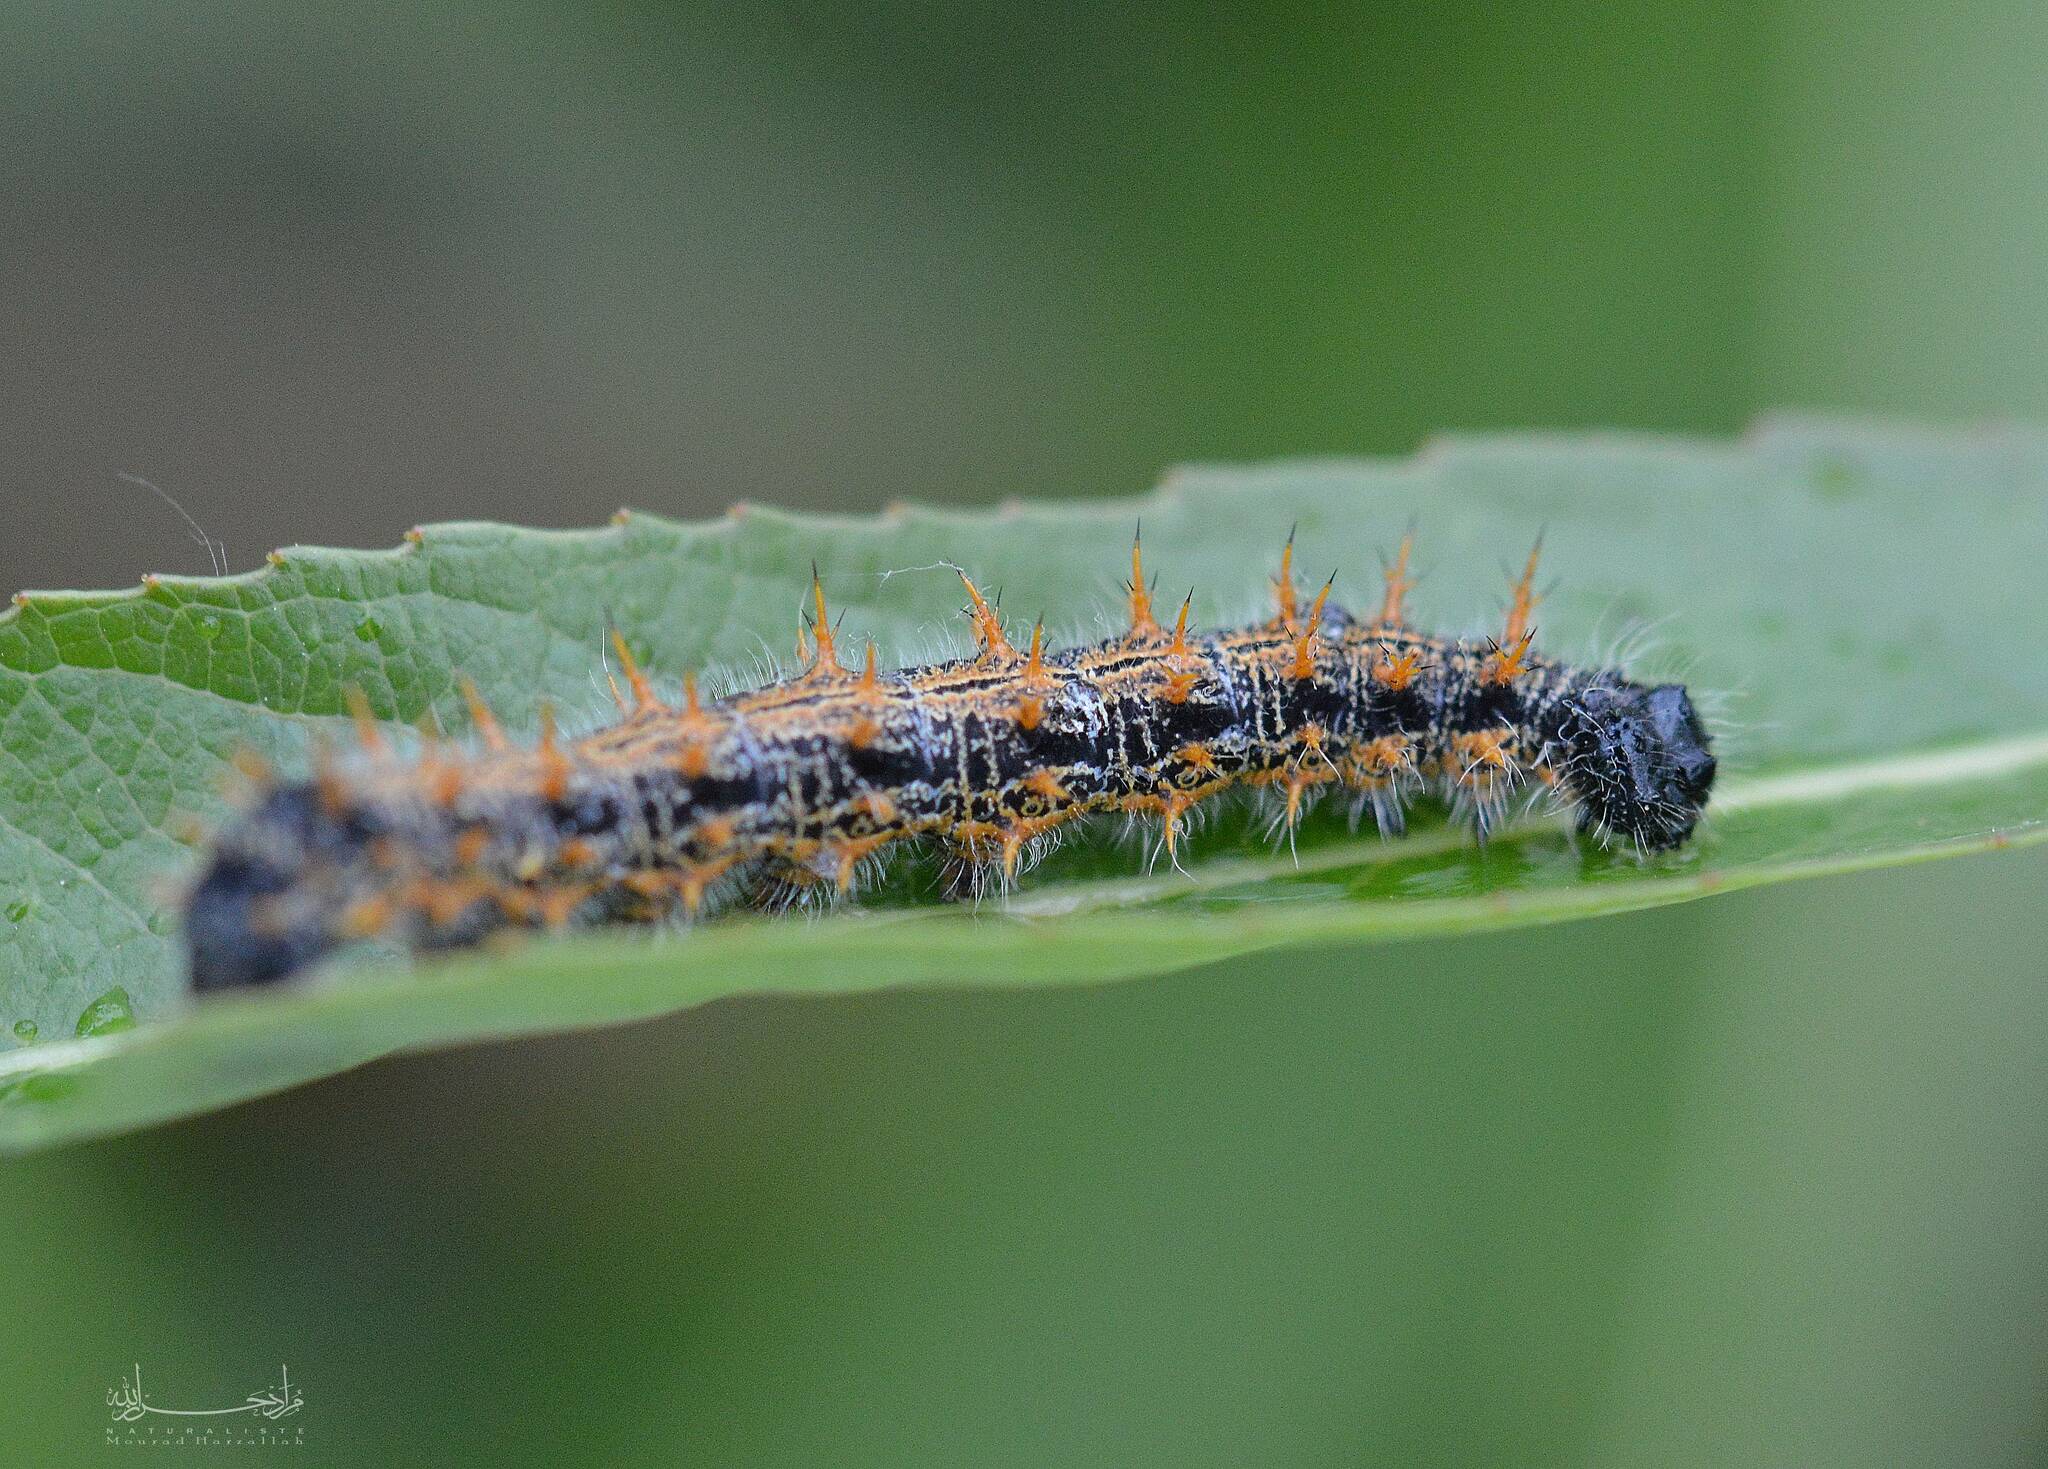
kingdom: Animalia
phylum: Arthropoda
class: Insecta
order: Lepidoptera
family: Nymphalidae
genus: Nymphalis
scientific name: Nymphalis polychloros
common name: Large tortoiseshell
